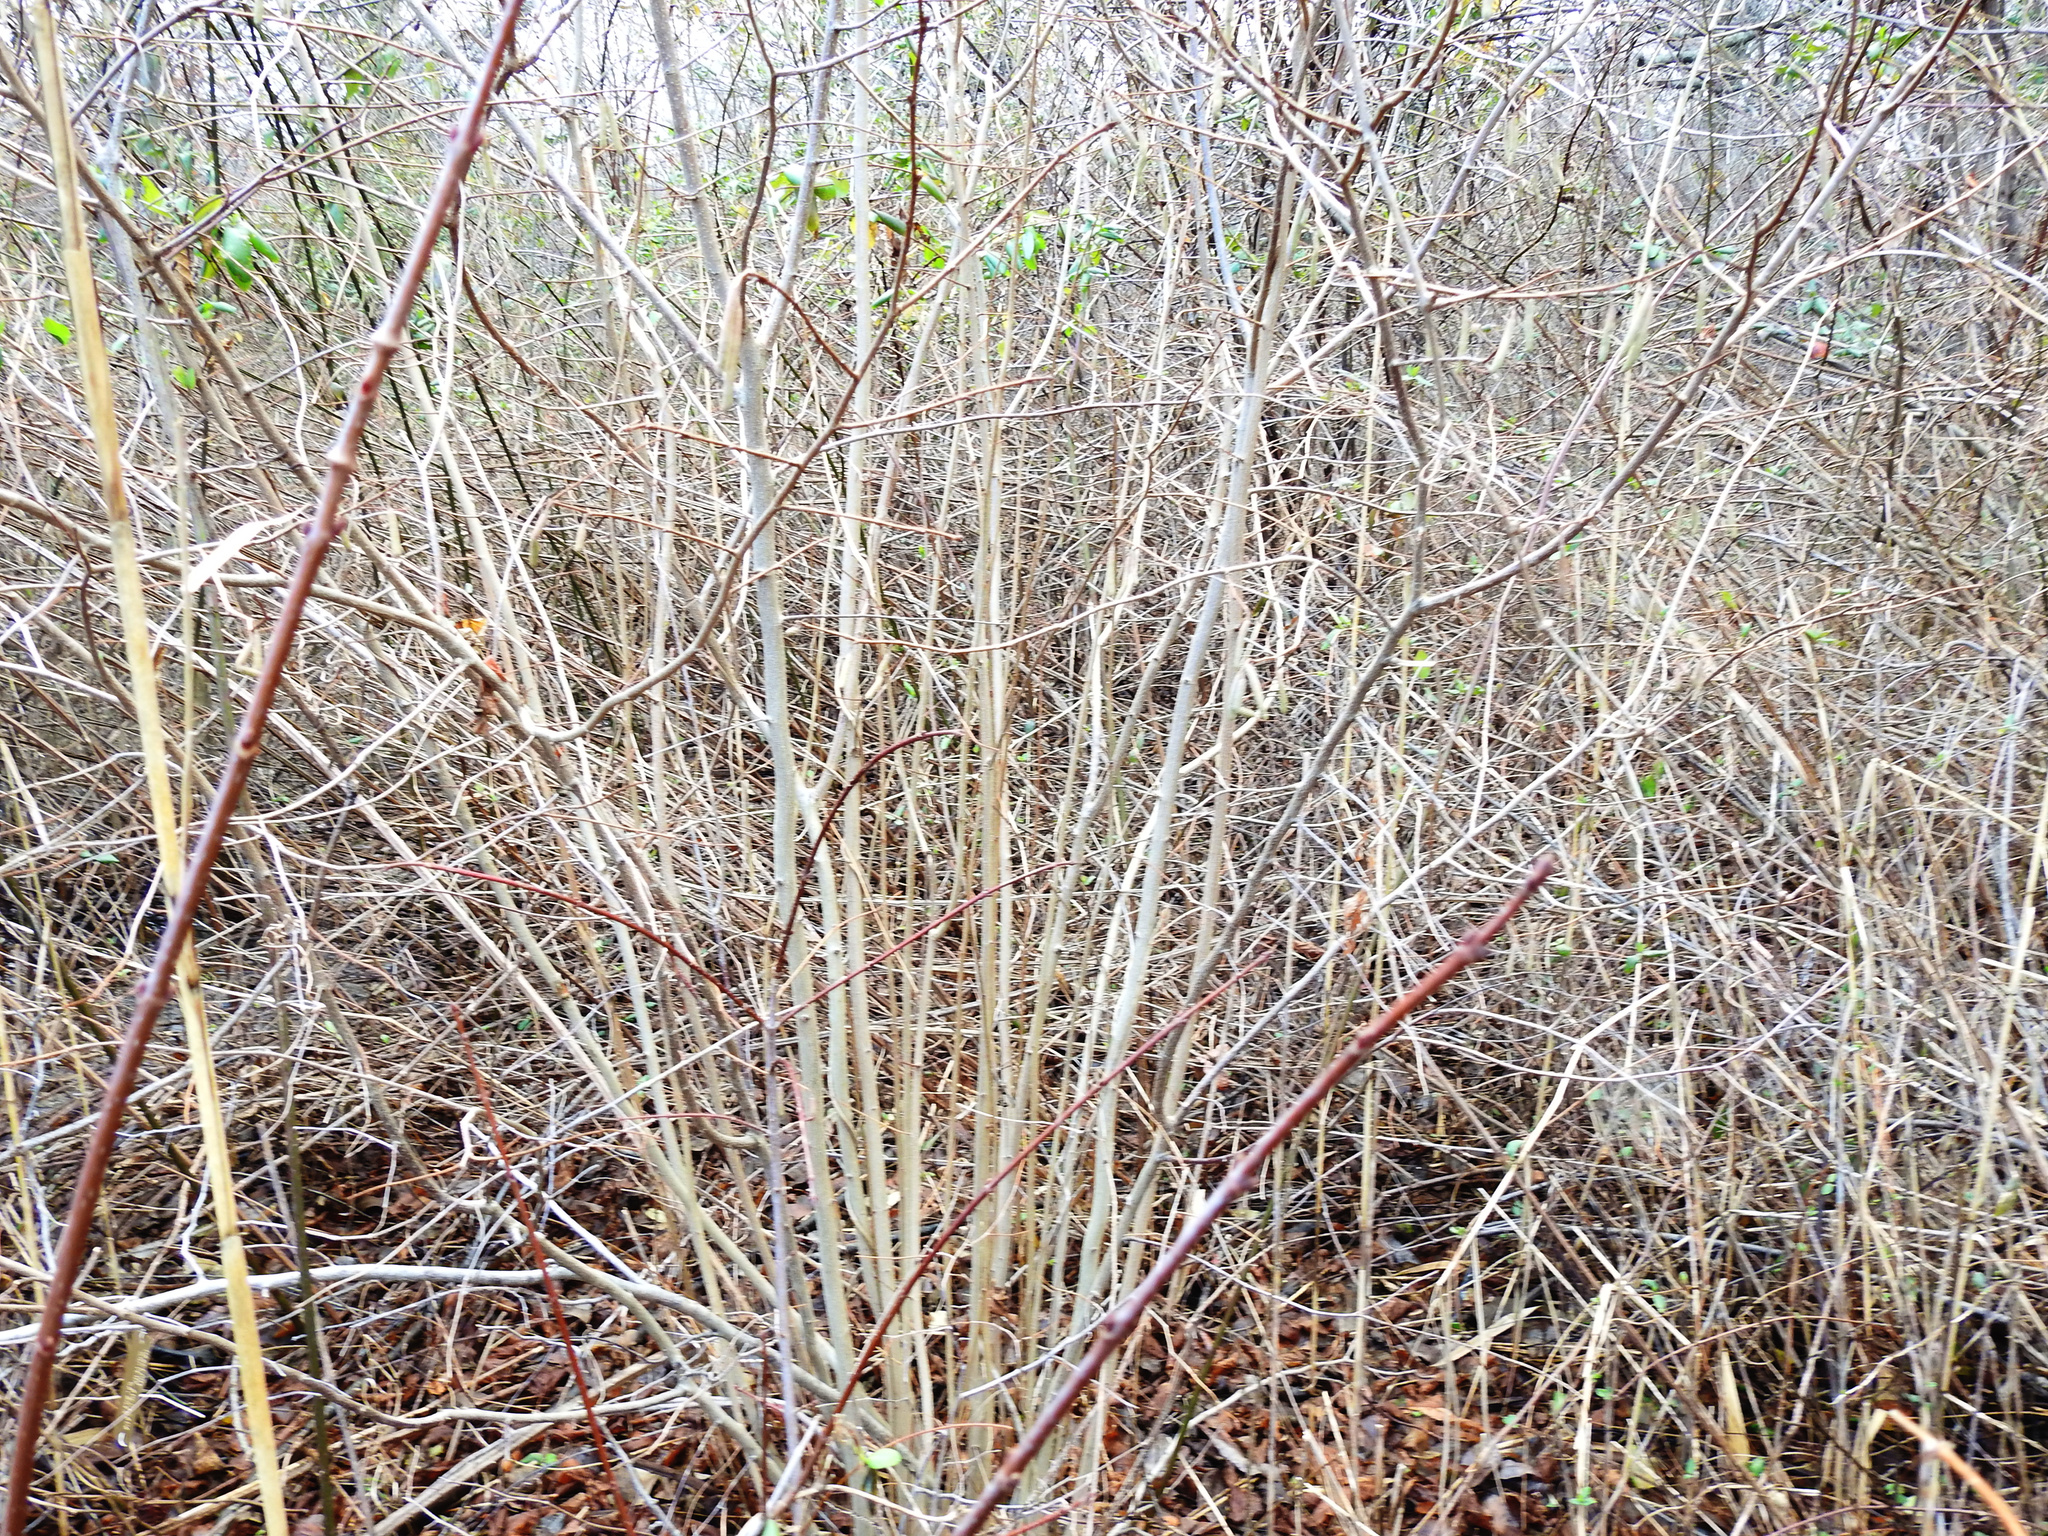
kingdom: Plantae
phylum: Tracheophyta
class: Magnoliopsida
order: Fagales
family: Betulaceae
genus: Corylus
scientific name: Corylus americana
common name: American hazel
